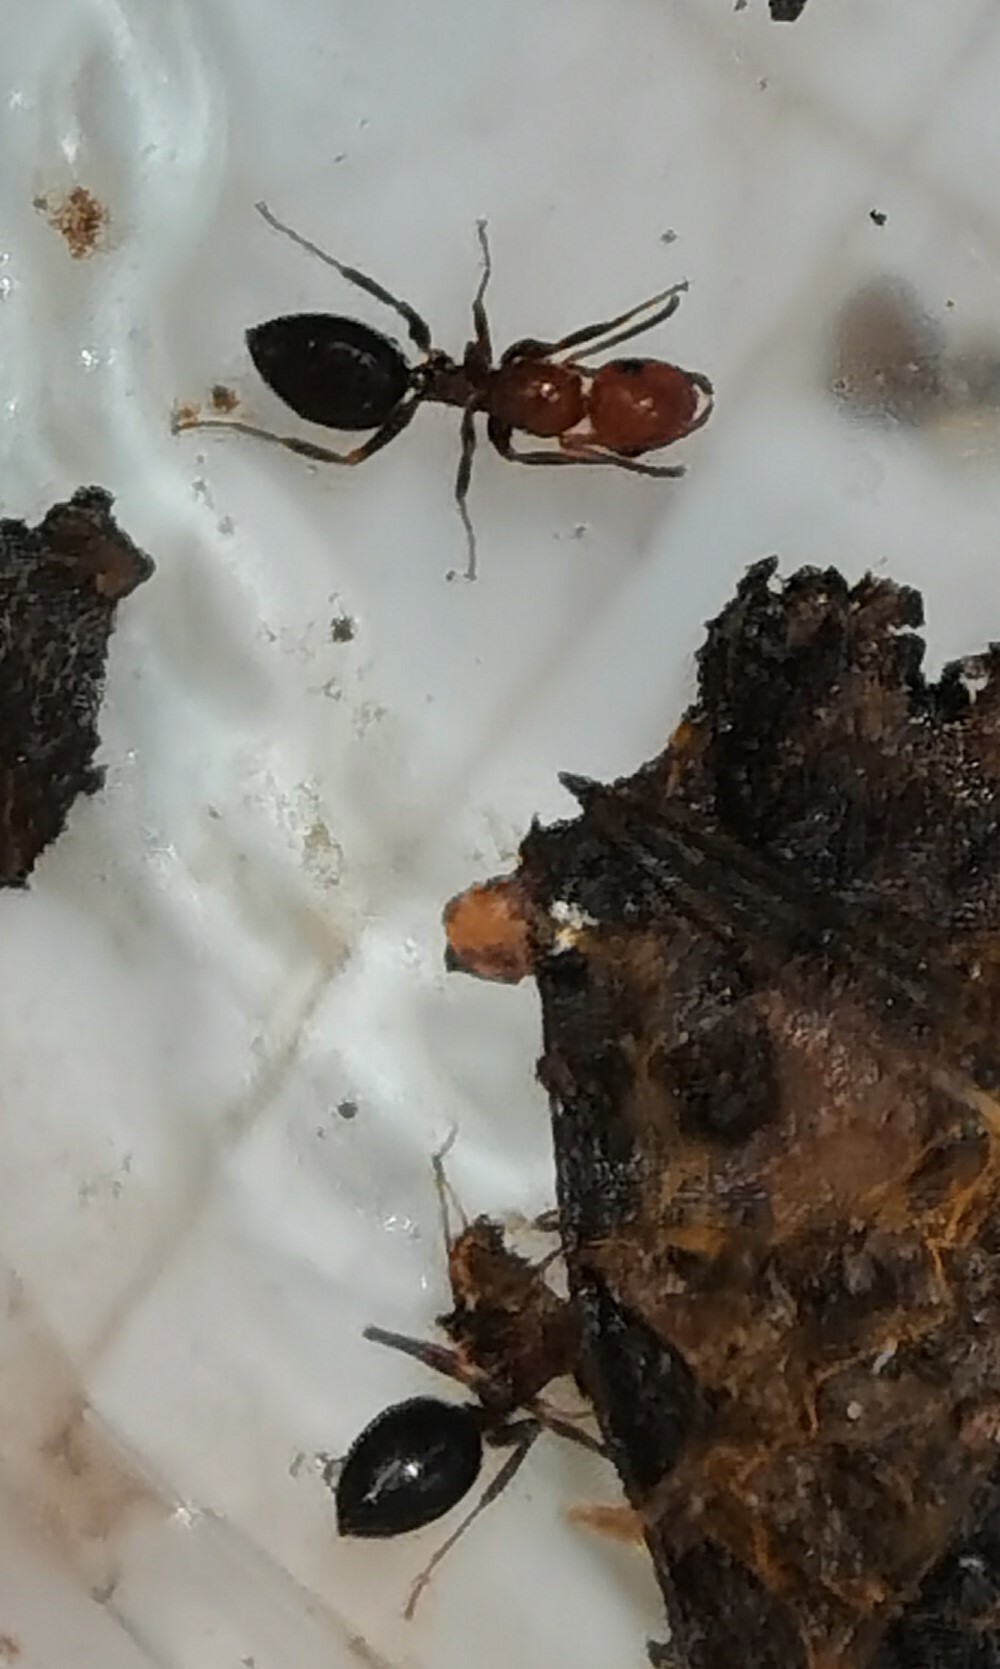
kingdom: Animalia
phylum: Arthropoda
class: Insecta
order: Hymenoptera
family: Formicidae
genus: Camponotus
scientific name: Camponotus lateralis
